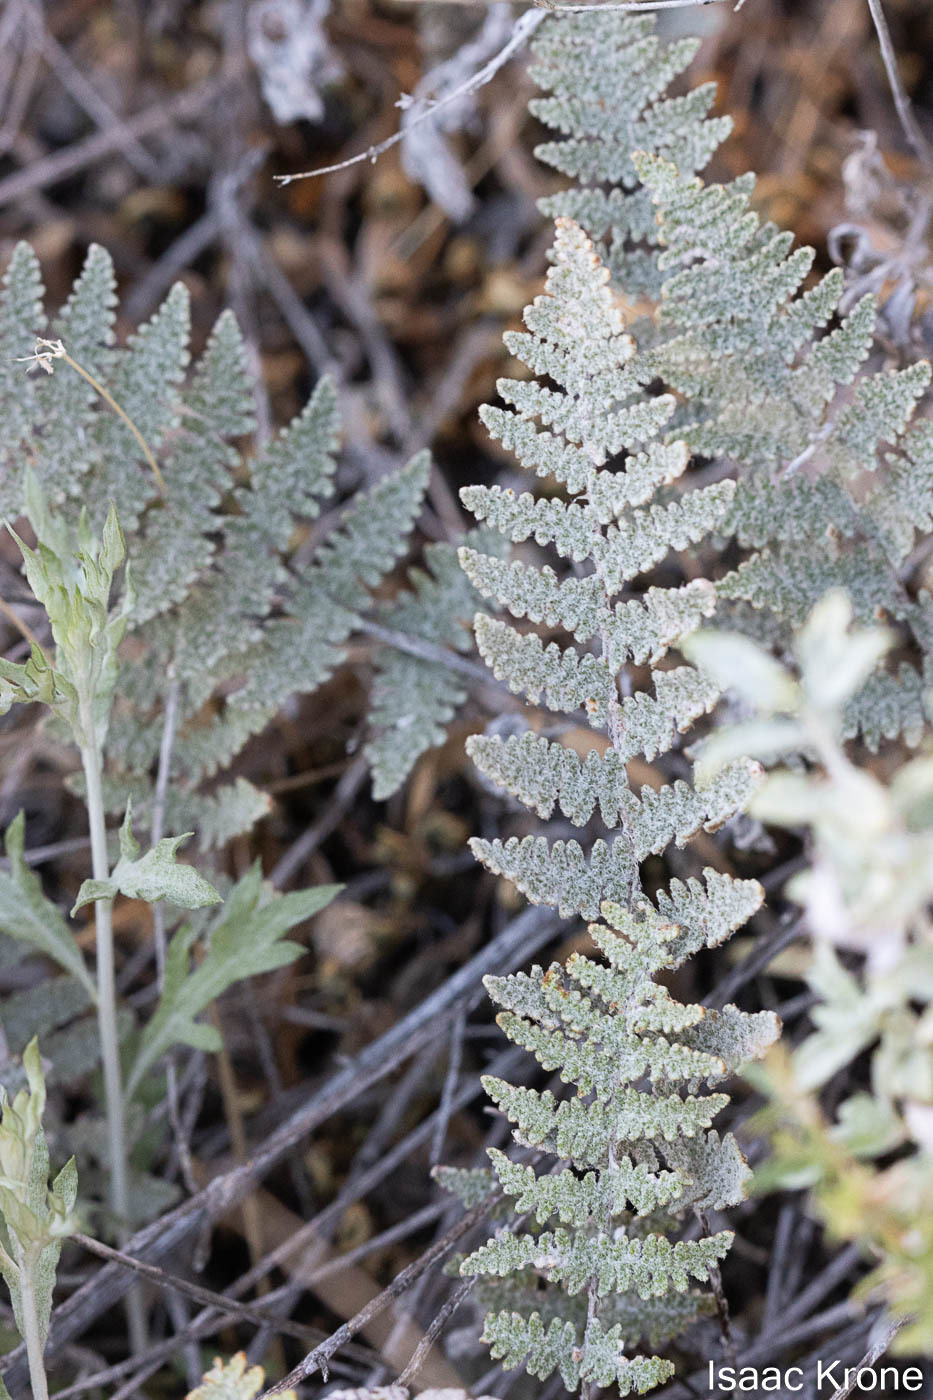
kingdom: Plantae
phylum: Tracheophyta
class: Polypodiopsida
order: Polypodiales
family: Pteridaceae
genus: Myriopteris
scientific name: Myriopteris lindheimeri
